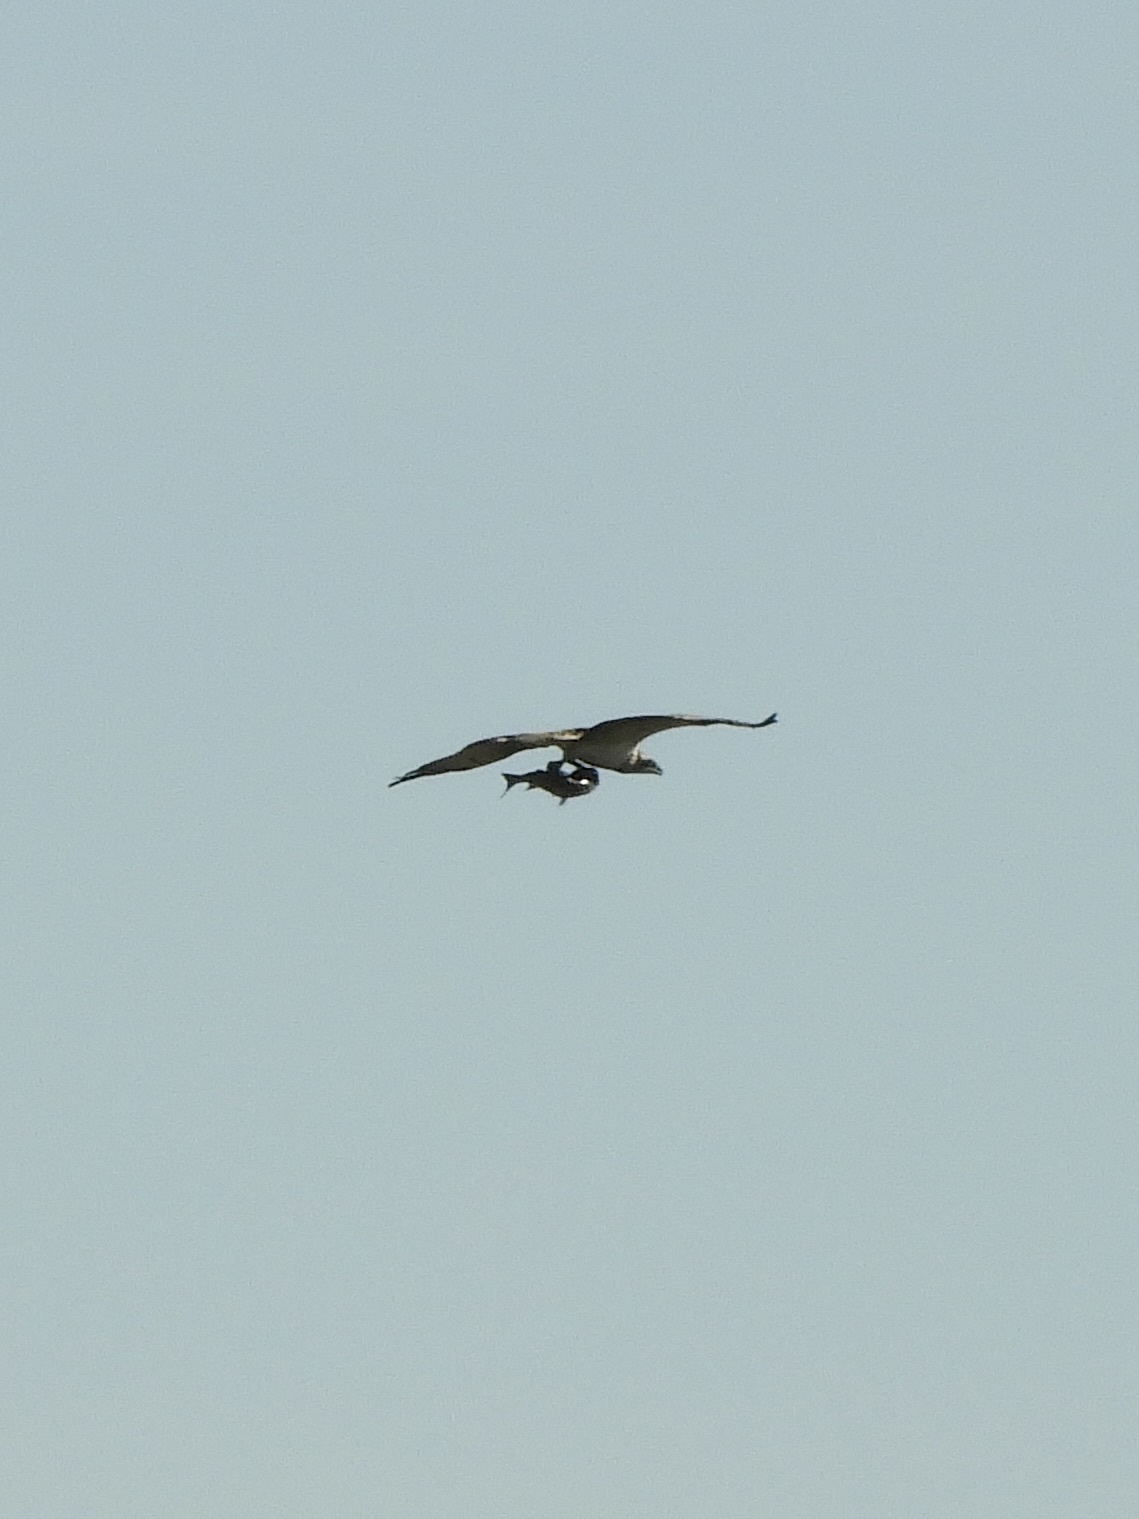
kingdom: Animalia
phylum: Chordata
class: Aves
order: Accipitriformes
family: Pandionidae
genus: Pandion
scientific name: Pandion haliaetus
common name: Osprey
